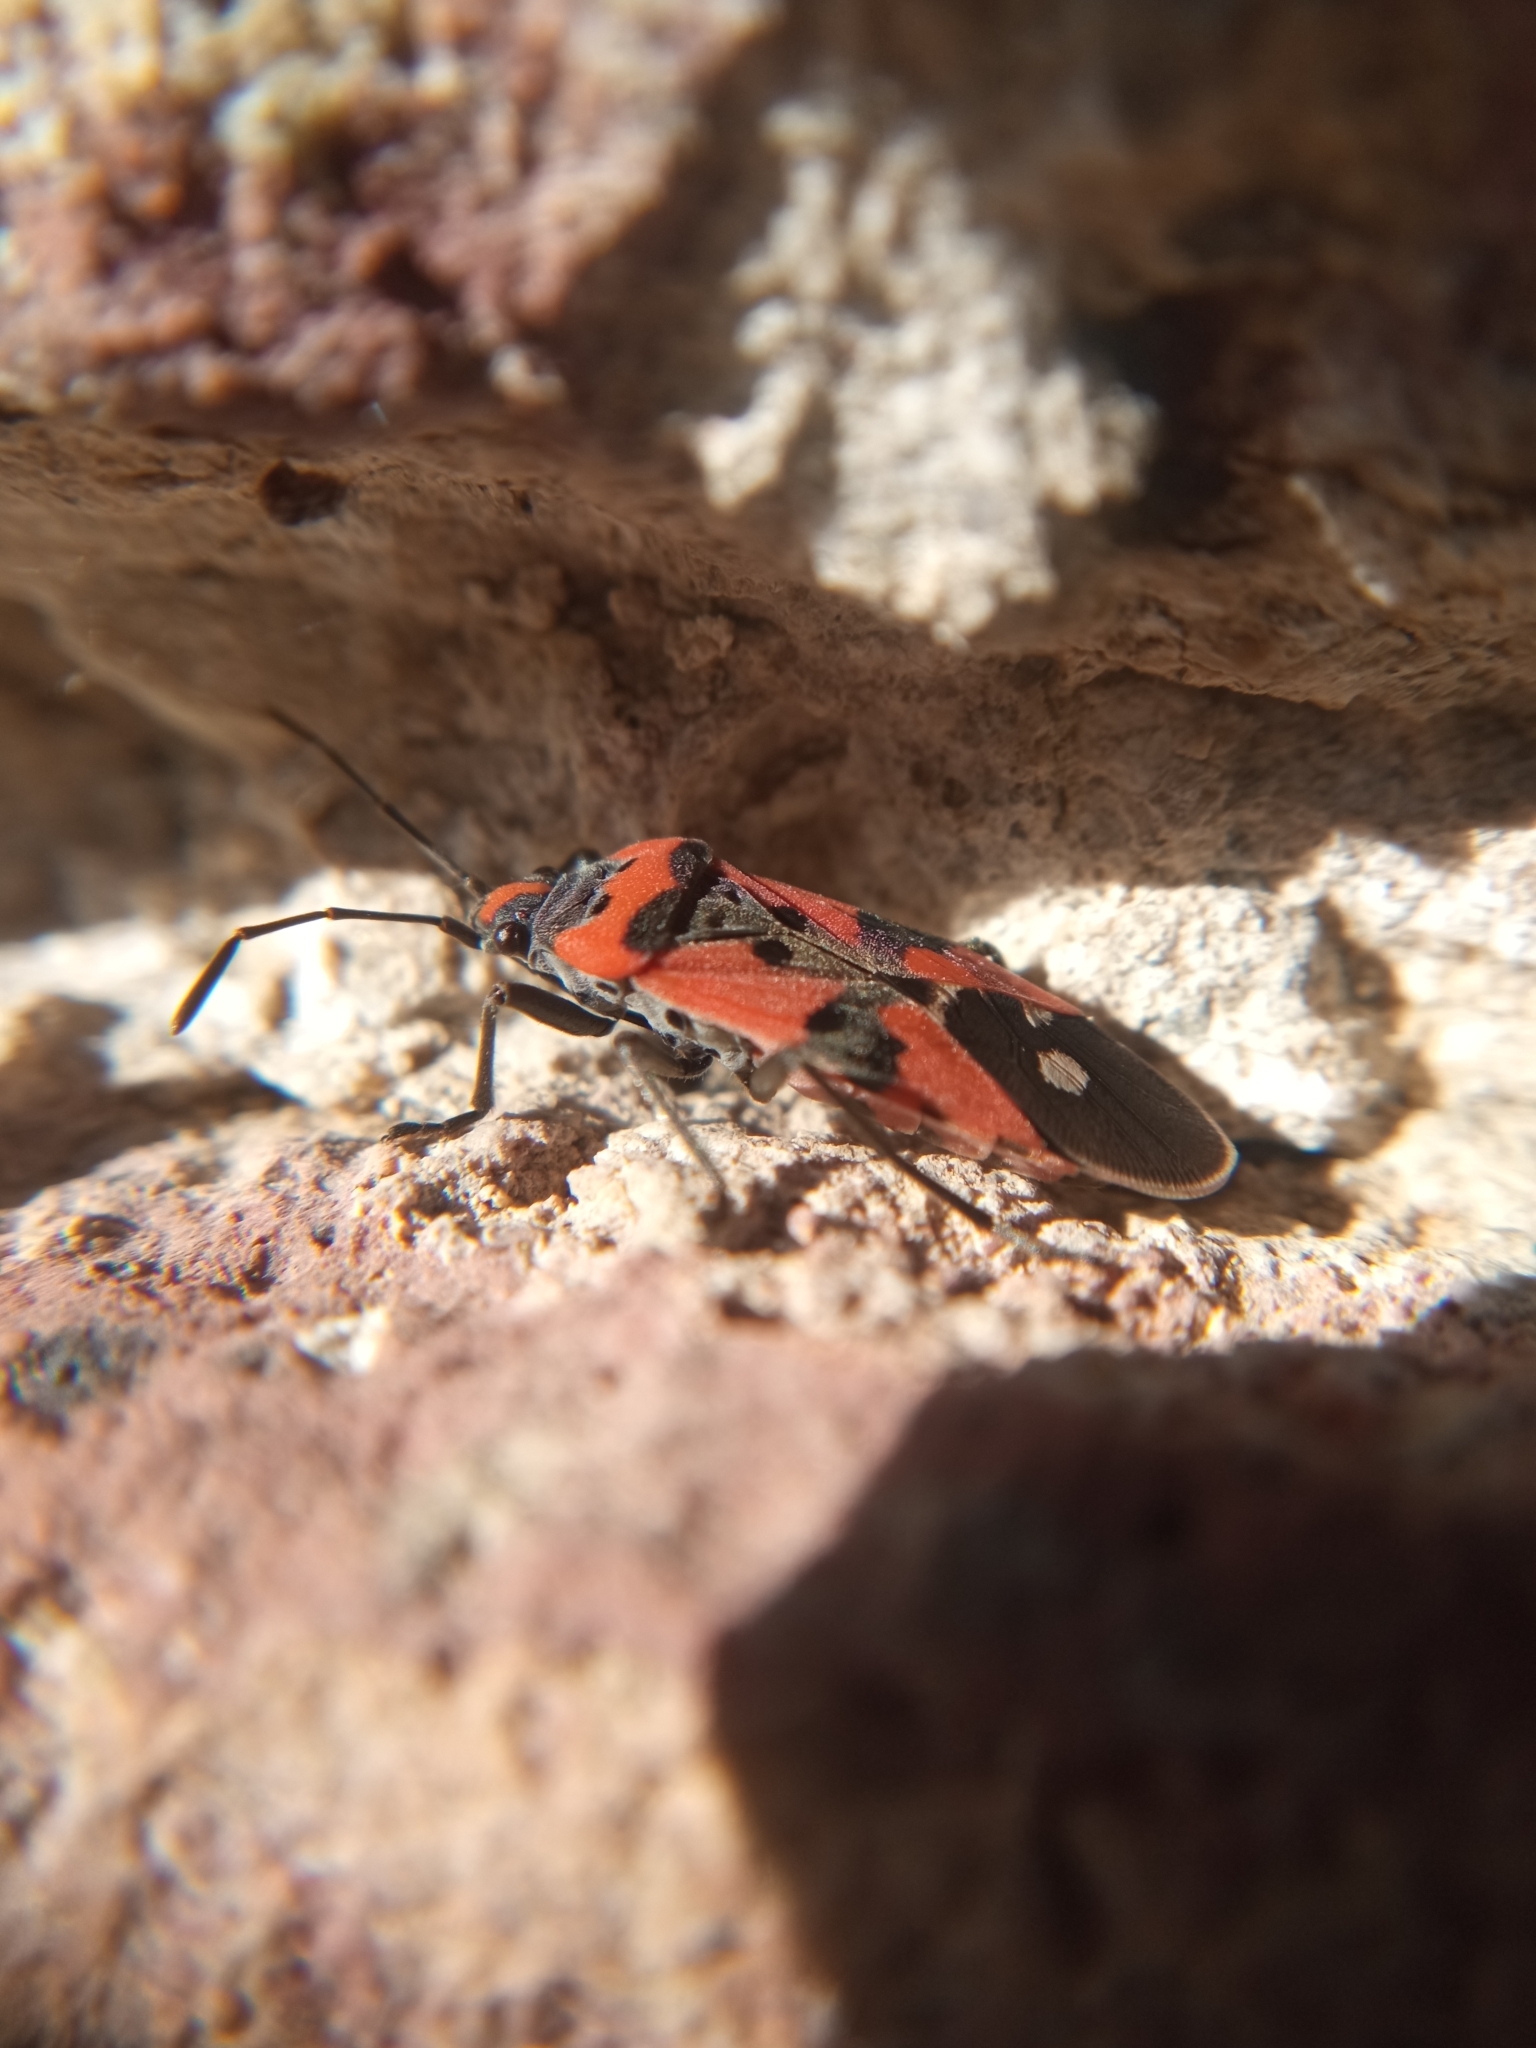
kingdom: Animalia
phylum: Arthropoda
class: Insecta
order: Hemiptera
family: Lygaeidae
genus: Lygaeus
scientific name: Lygaeus equestris
